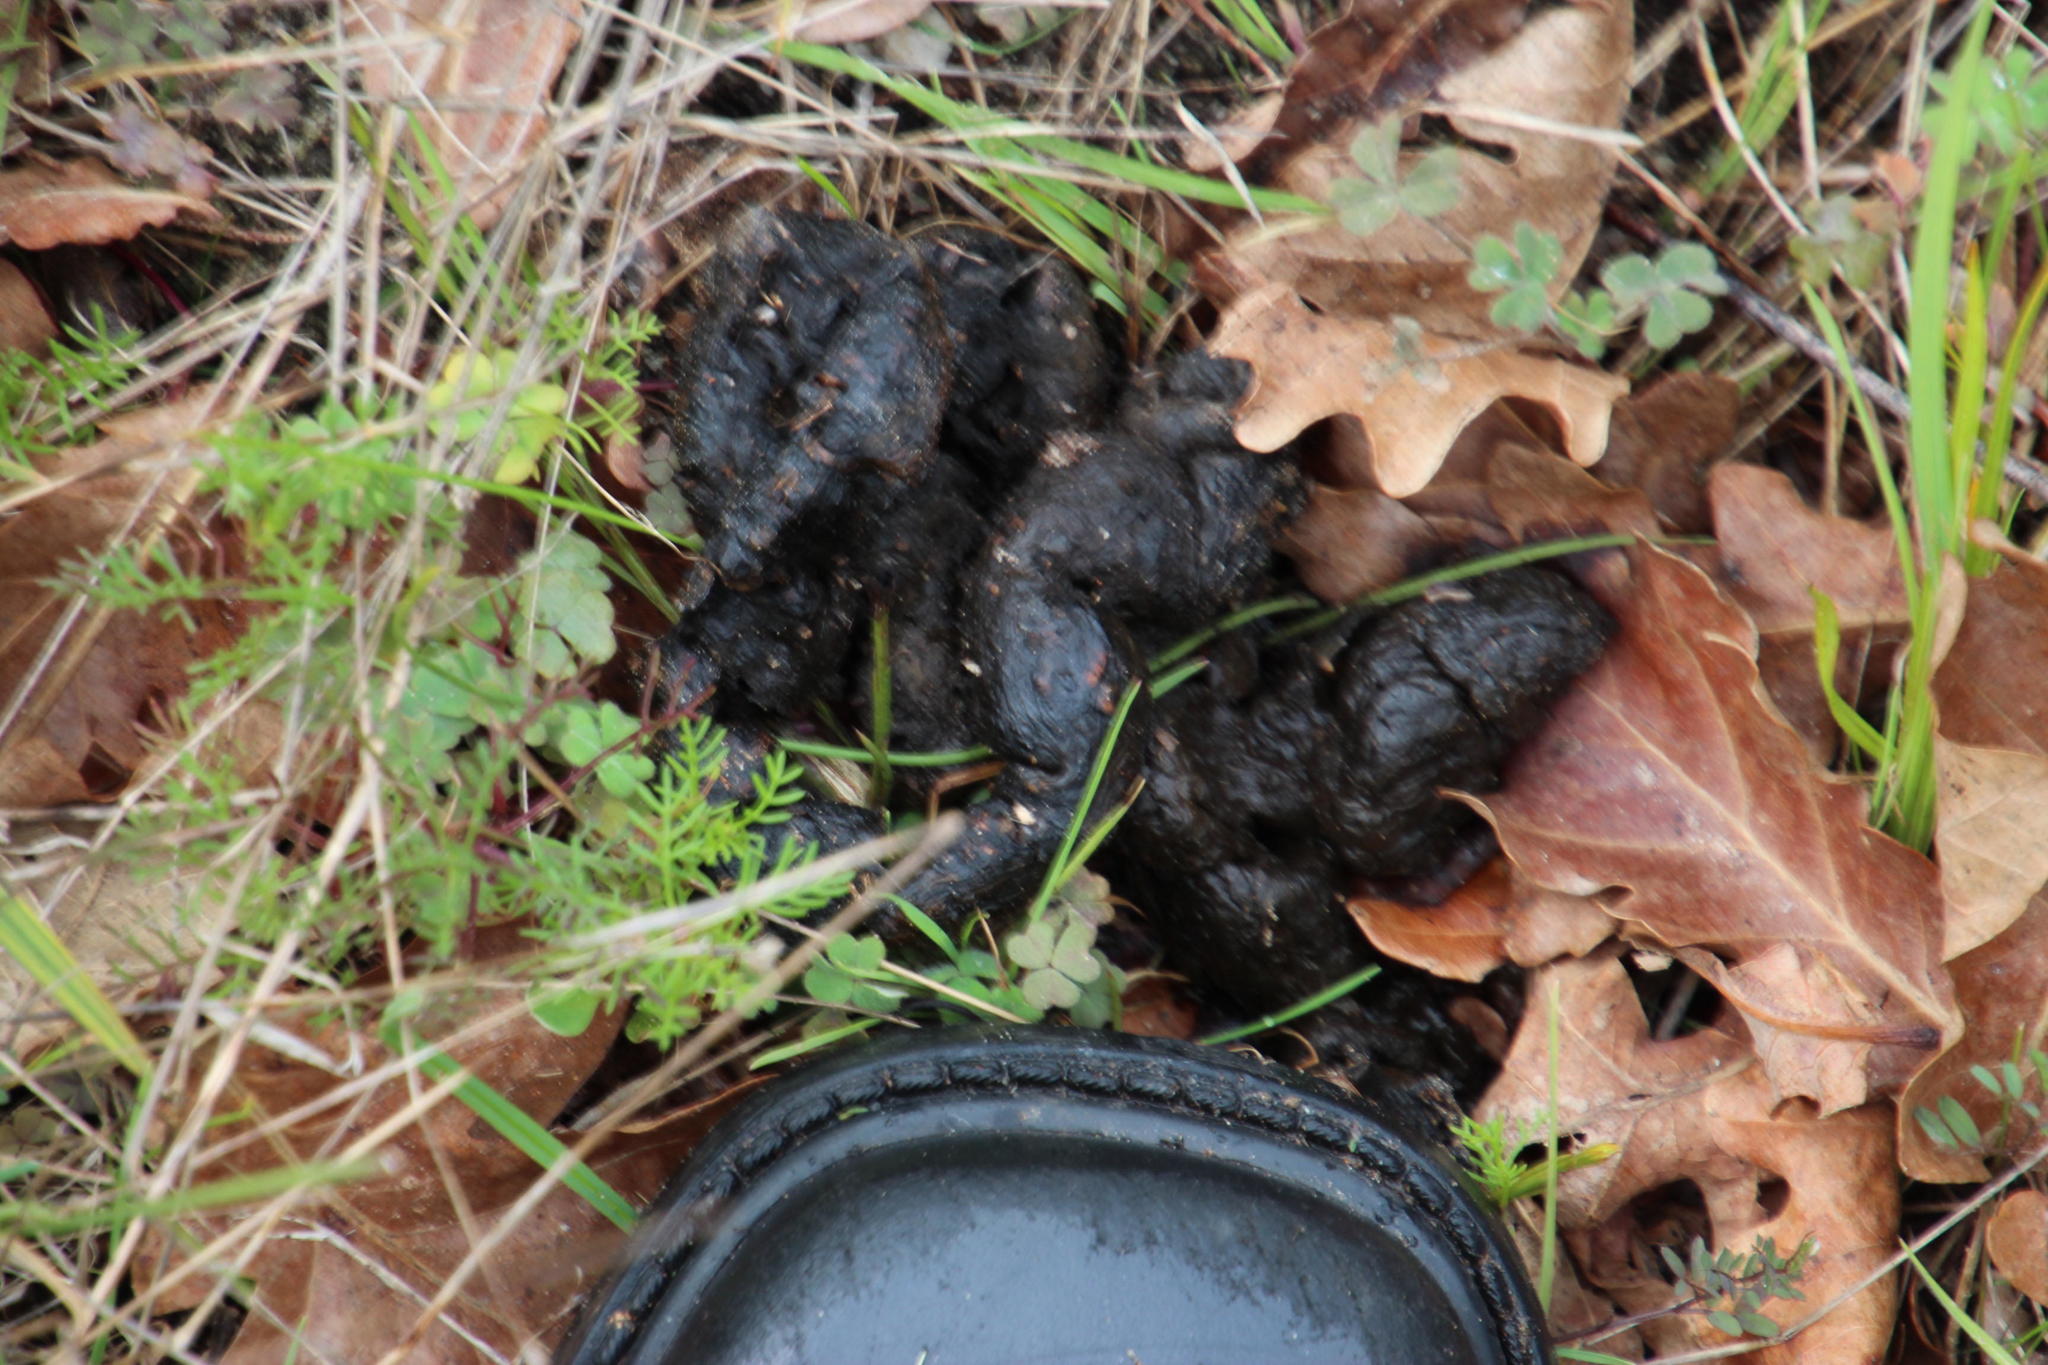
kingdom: Animalia
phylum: Chordata
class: Mammalia
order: Rodentia
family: Hystricidae
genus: Hystrix
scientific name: Hystrix africaeaustralis
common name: Cape porcupine
